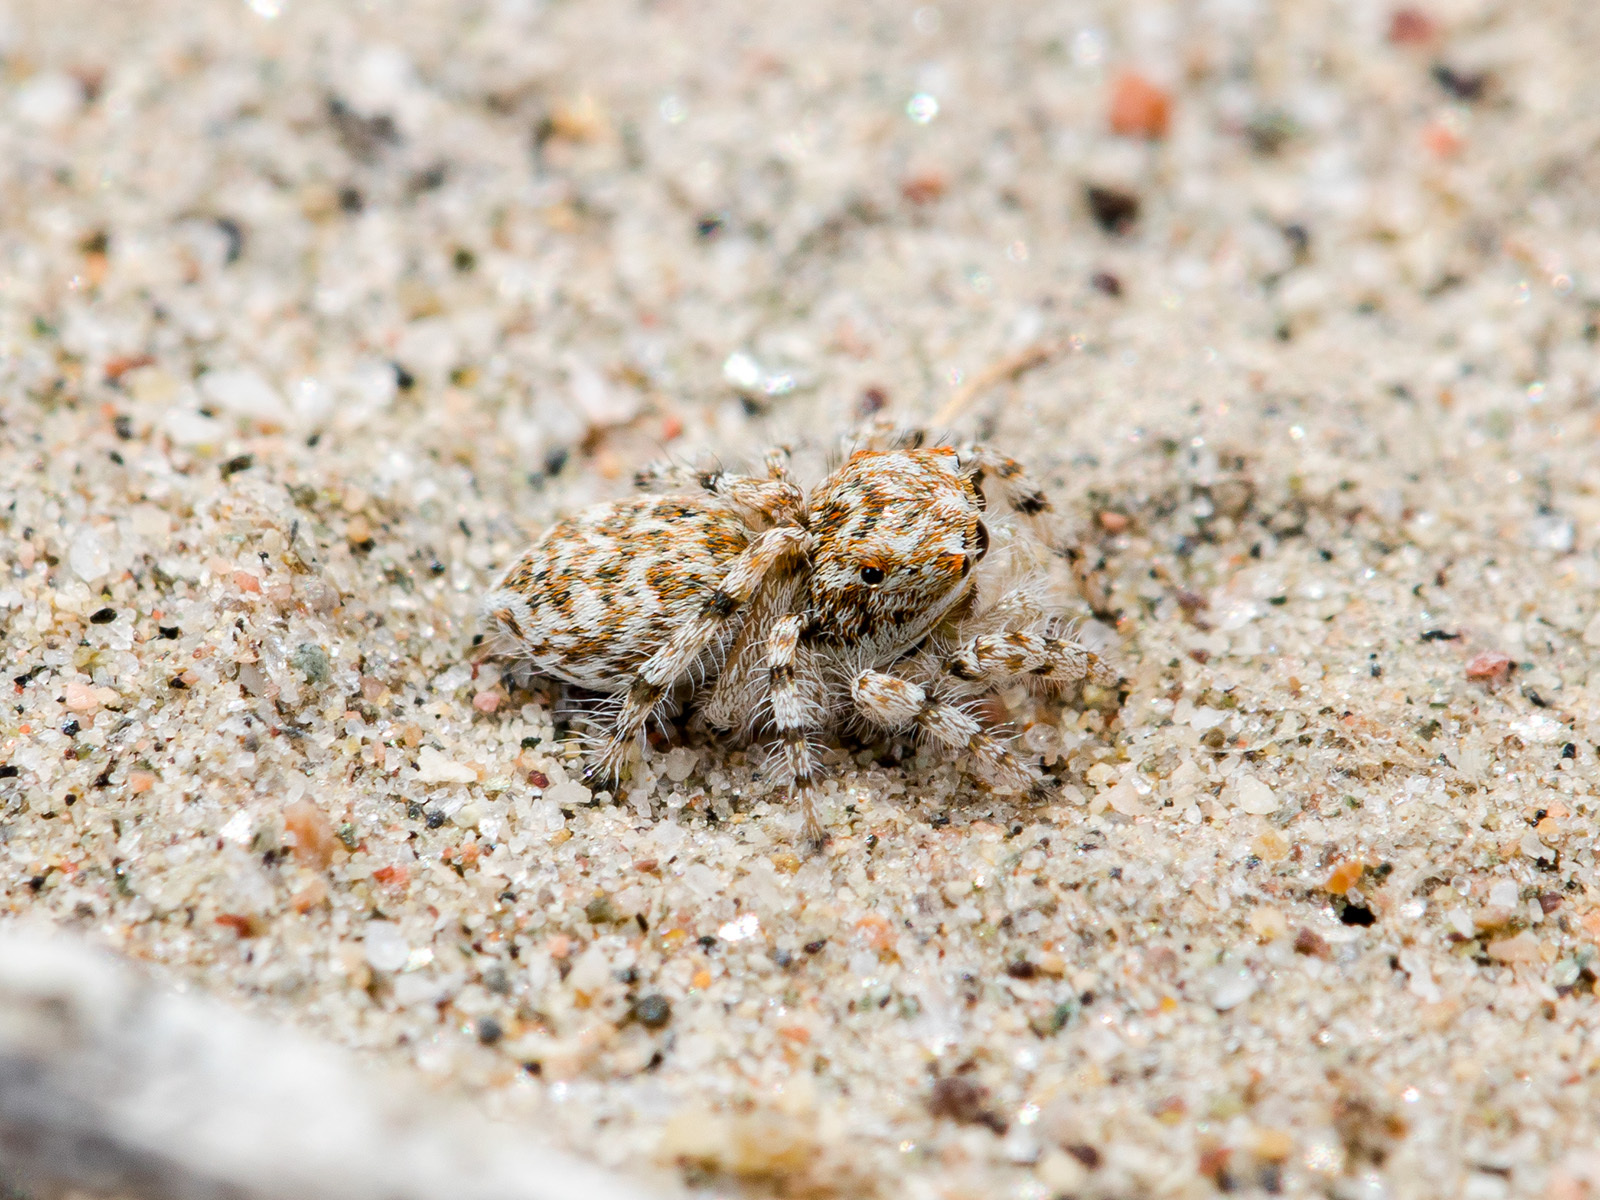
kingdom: Animalia
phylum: Arthropoda
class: Arachnida
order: Araneae
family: Salticidae
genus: Yllenus
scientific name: Yllenus uiguricus
